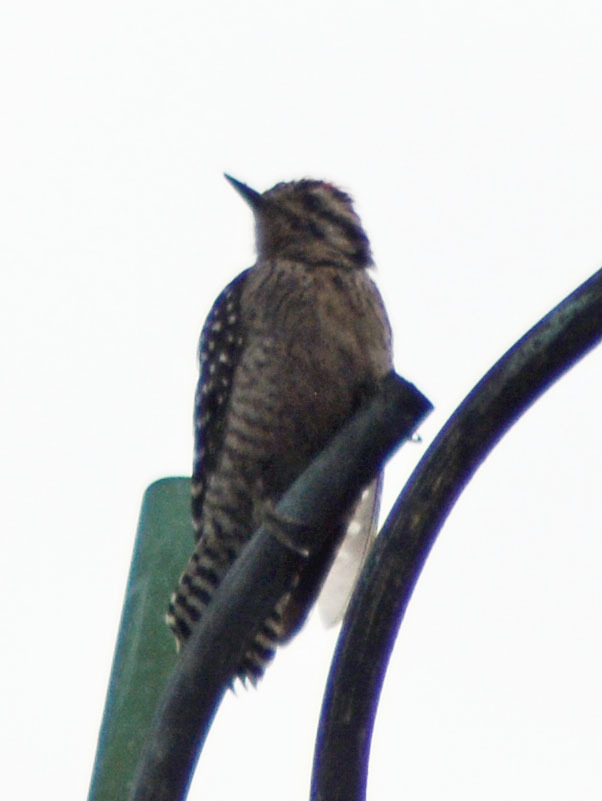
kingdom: Animalia
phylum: Chordata
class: Aves
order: Piciformes
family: Picidae
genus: Dryobates
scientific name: Dryobates scalaris
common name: Ladder-backed woodpecker
